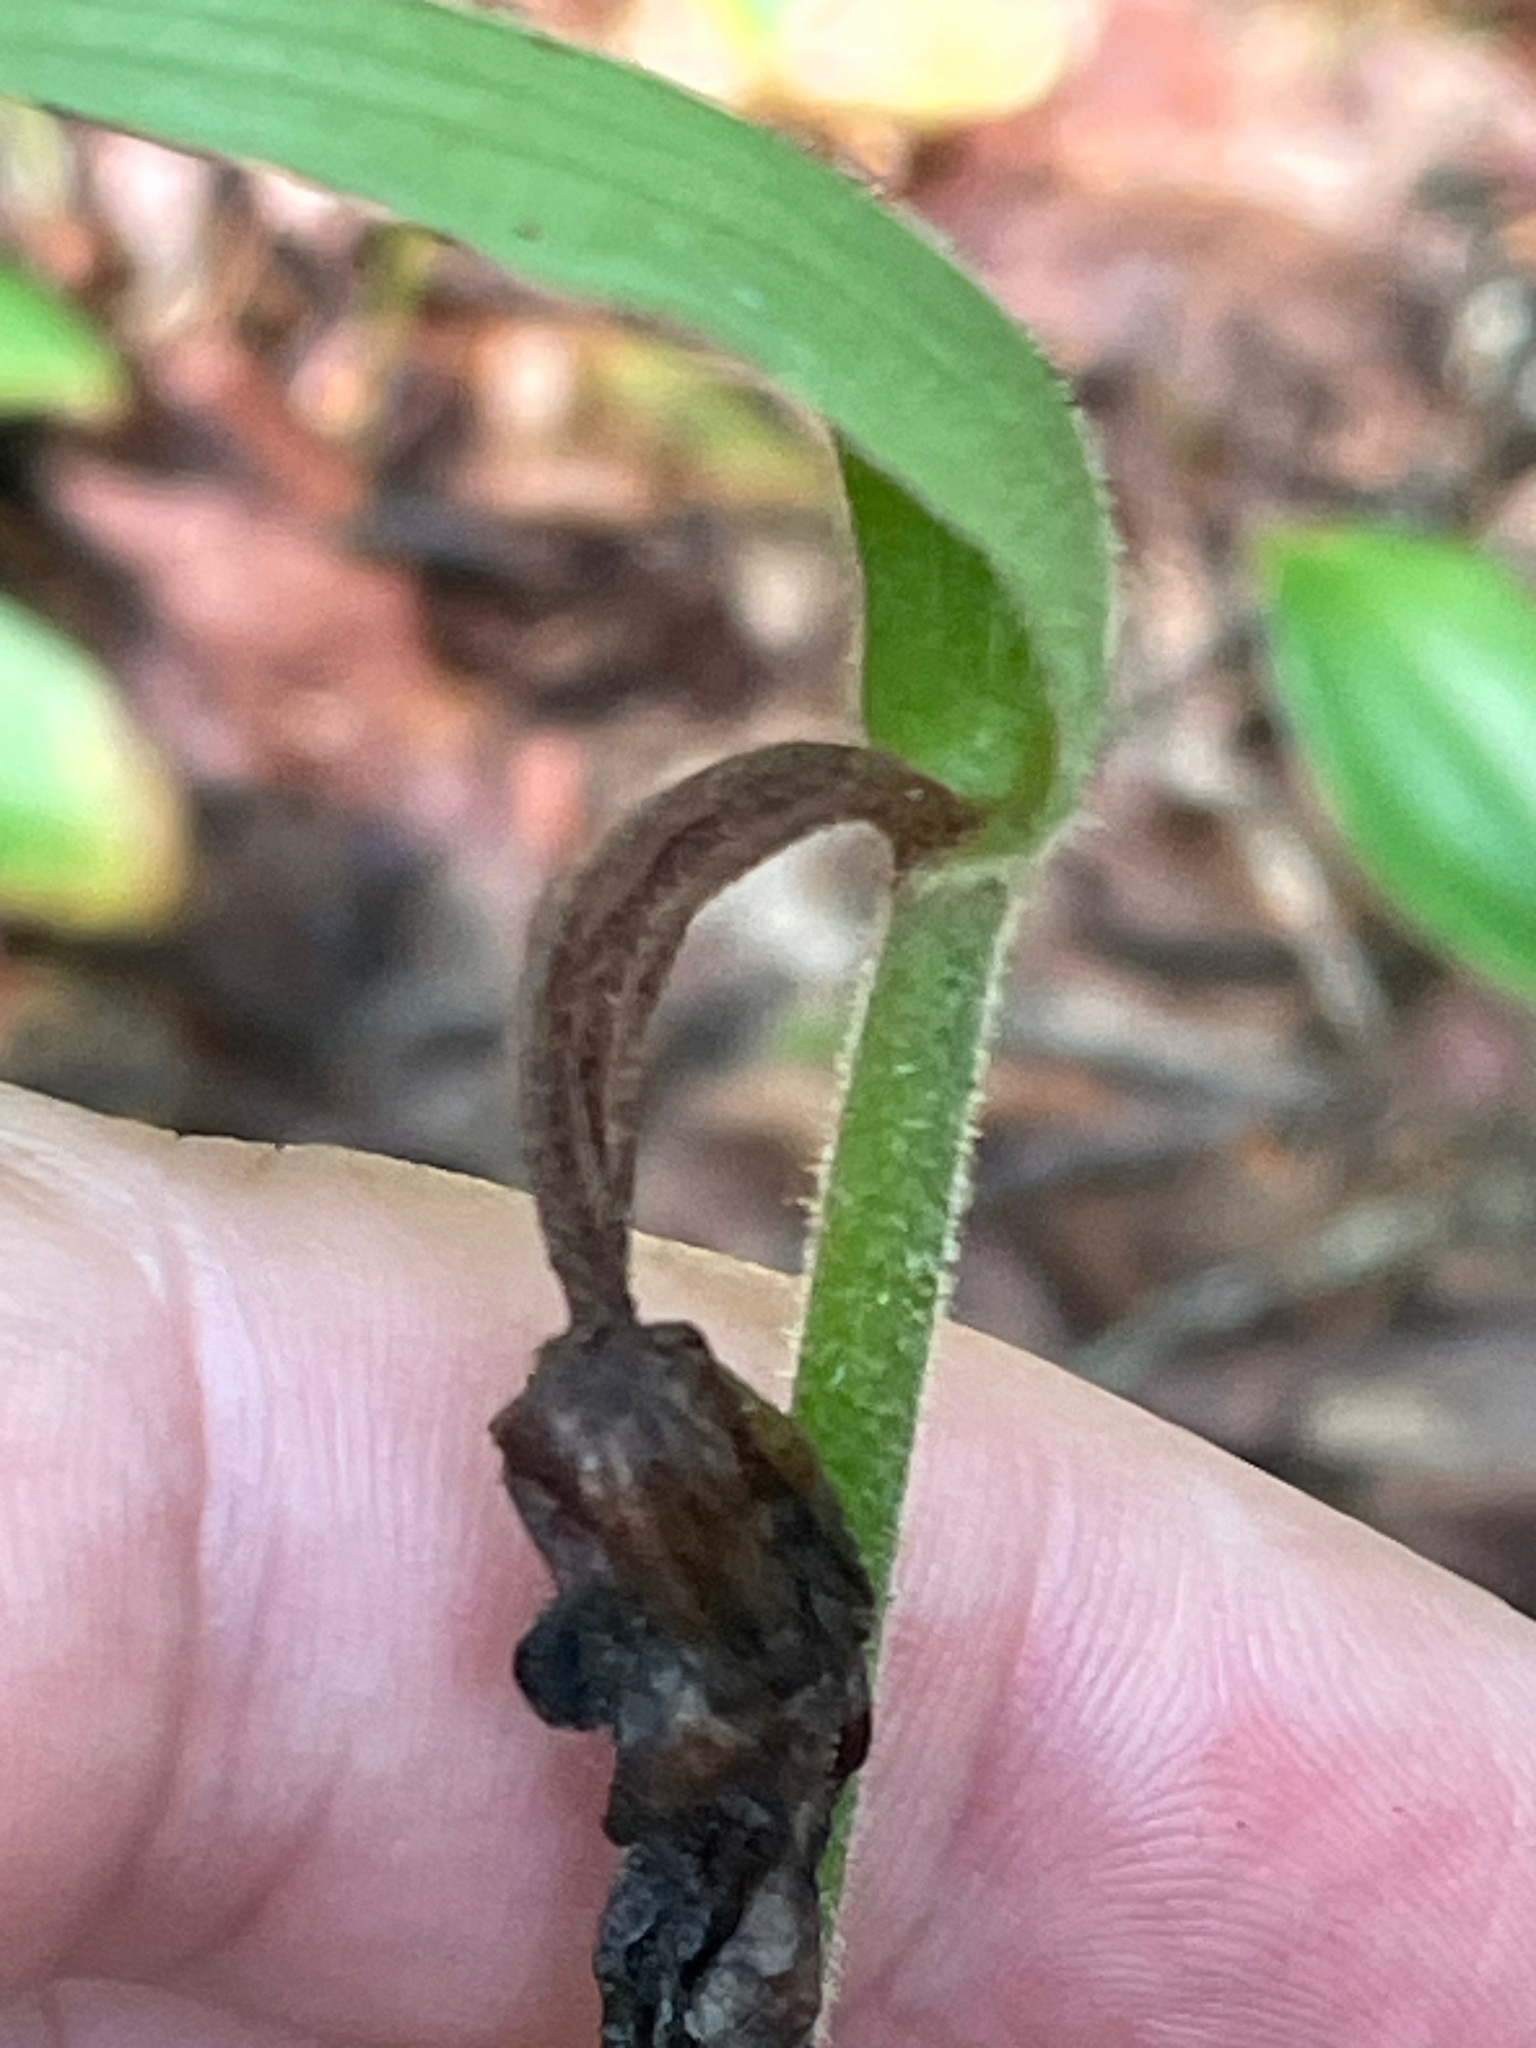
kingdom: Plantae
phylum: Tracheophyta
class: Liliopsida
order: Asparagales
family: Orchidaceae
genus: Cypripedium
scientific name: Cypripedium acaule
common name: Pink lady's-slipper
